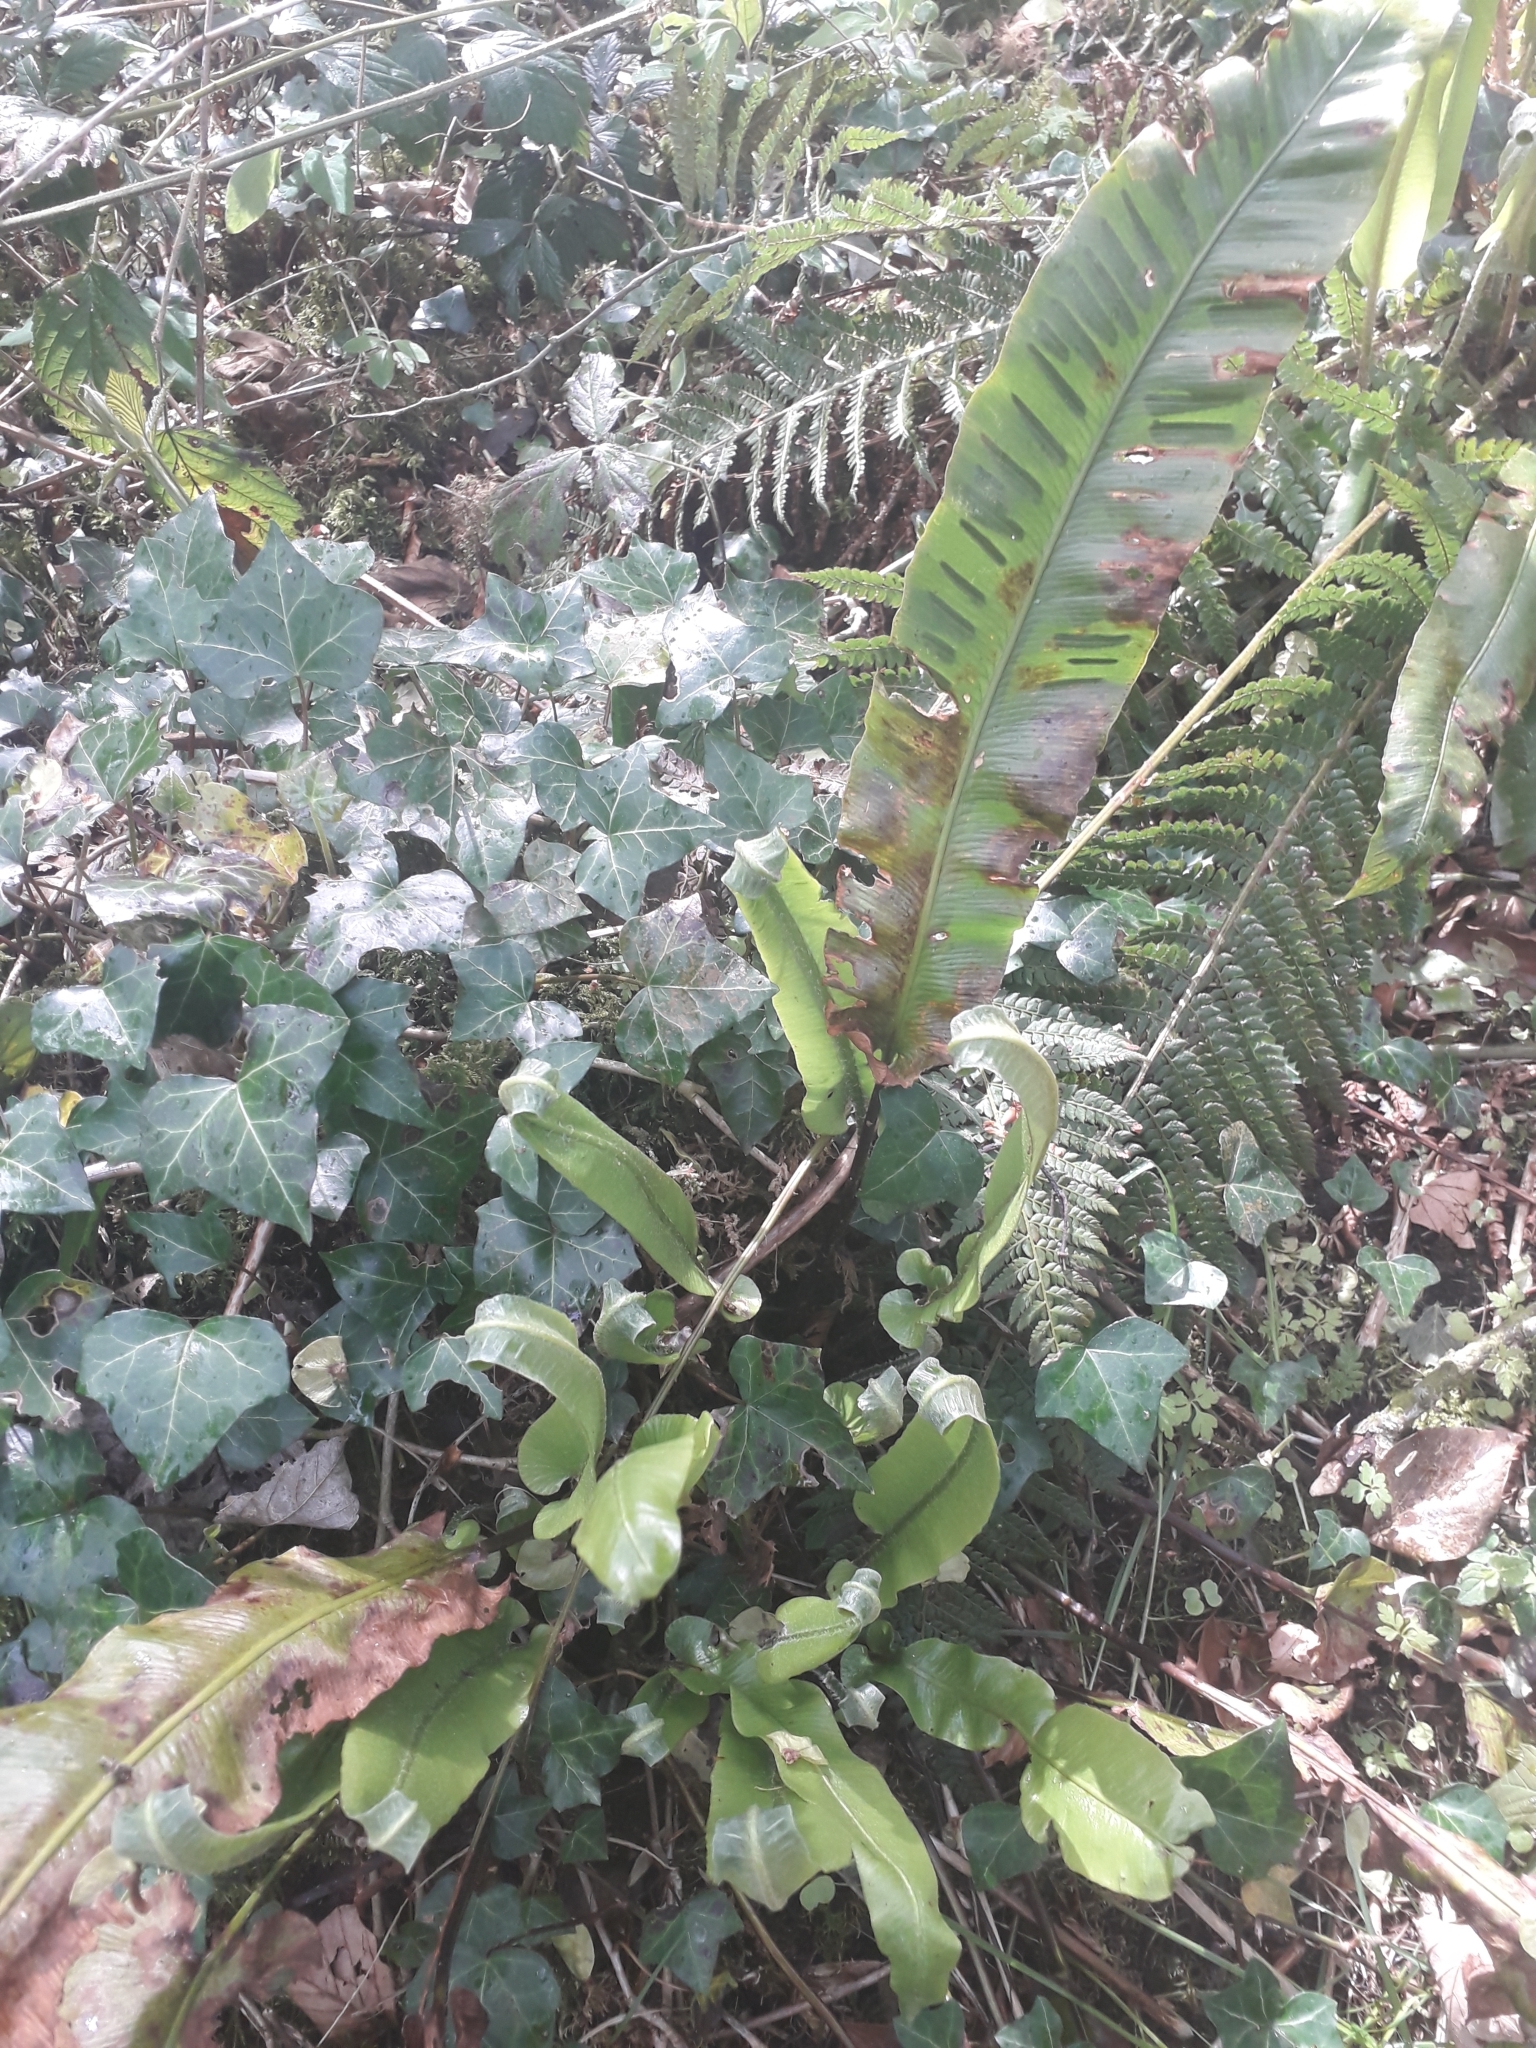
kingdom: Plantae
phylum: Tracheophyta
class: Polypodiopsida
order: Polypodiales
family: Aspleniaceae
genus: Asplenium
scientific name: Asplenium scolopendrium
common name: Hart's-tongue fern
